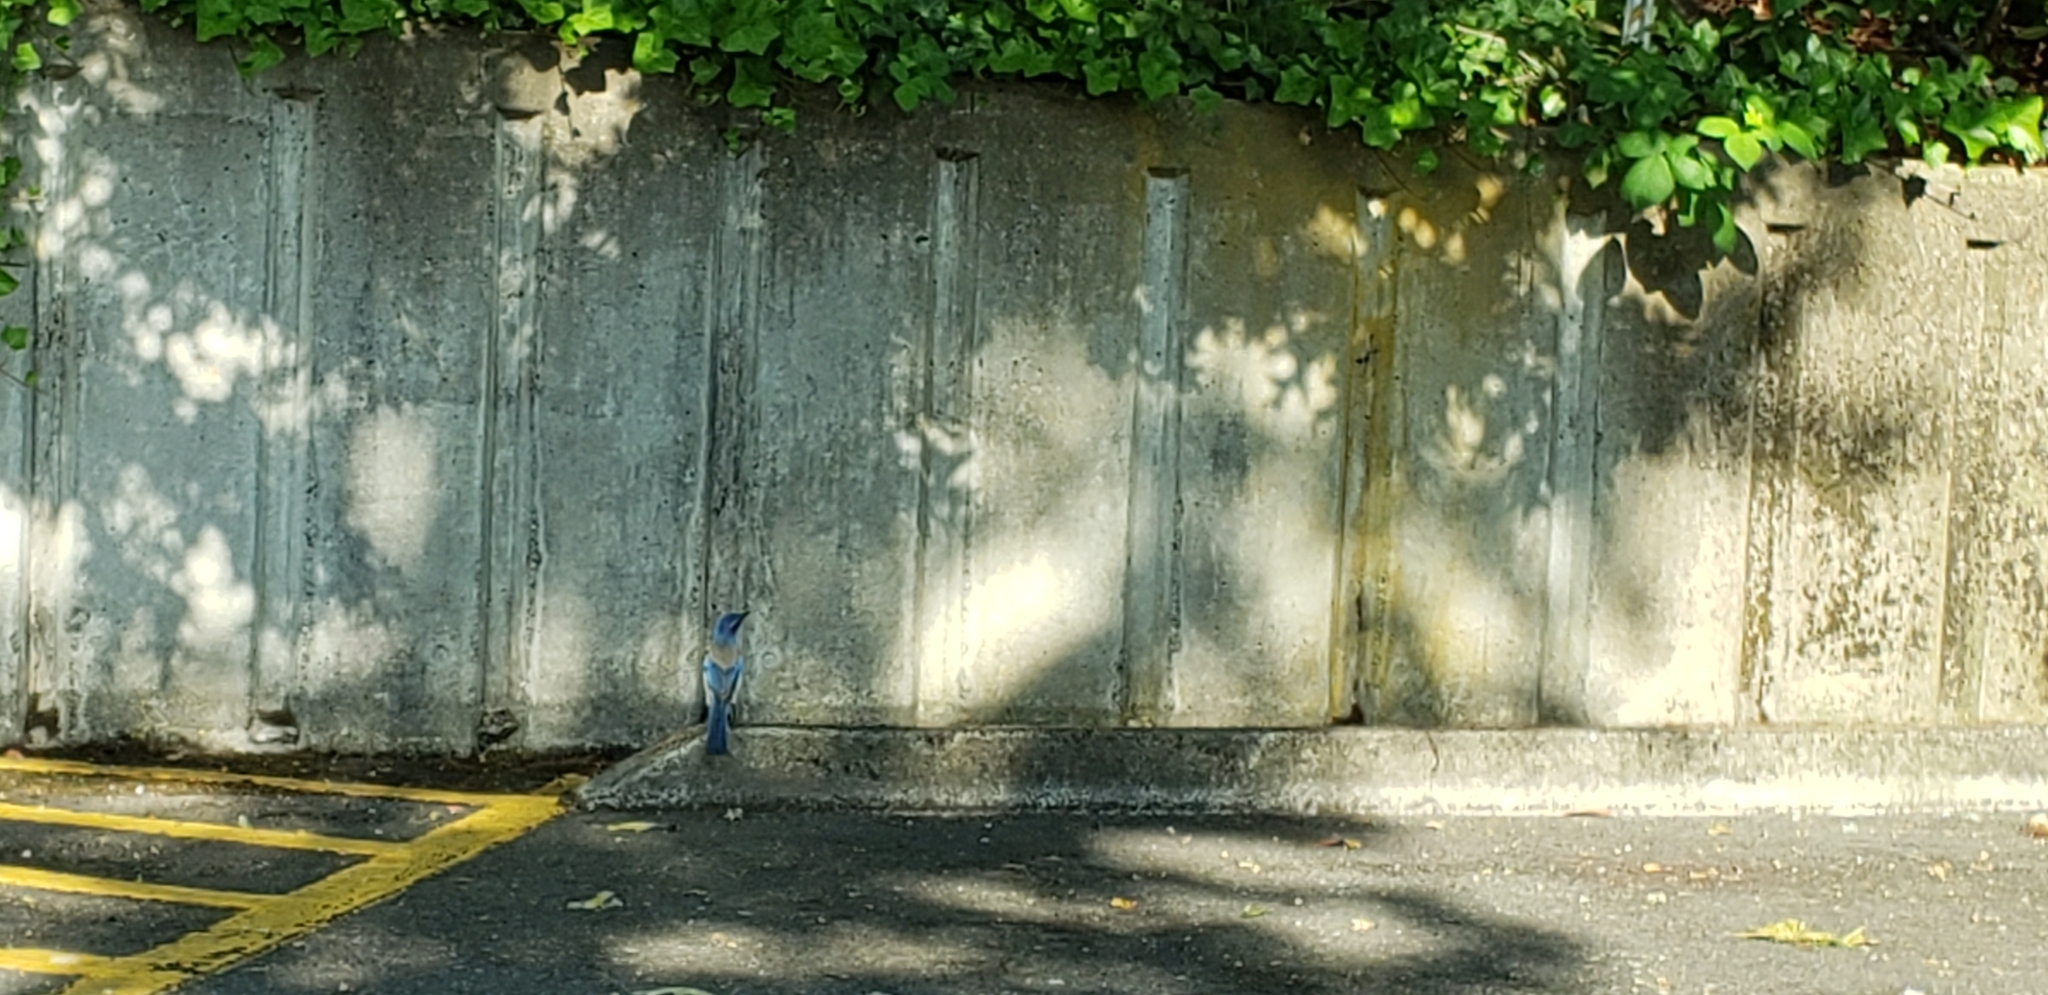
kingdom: Animalia
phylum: Chordata
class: Aves
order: Passeriformes
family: Corvidae
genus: Aphelocoma
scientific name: Aphelocoma californica
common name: California scrub-jay
